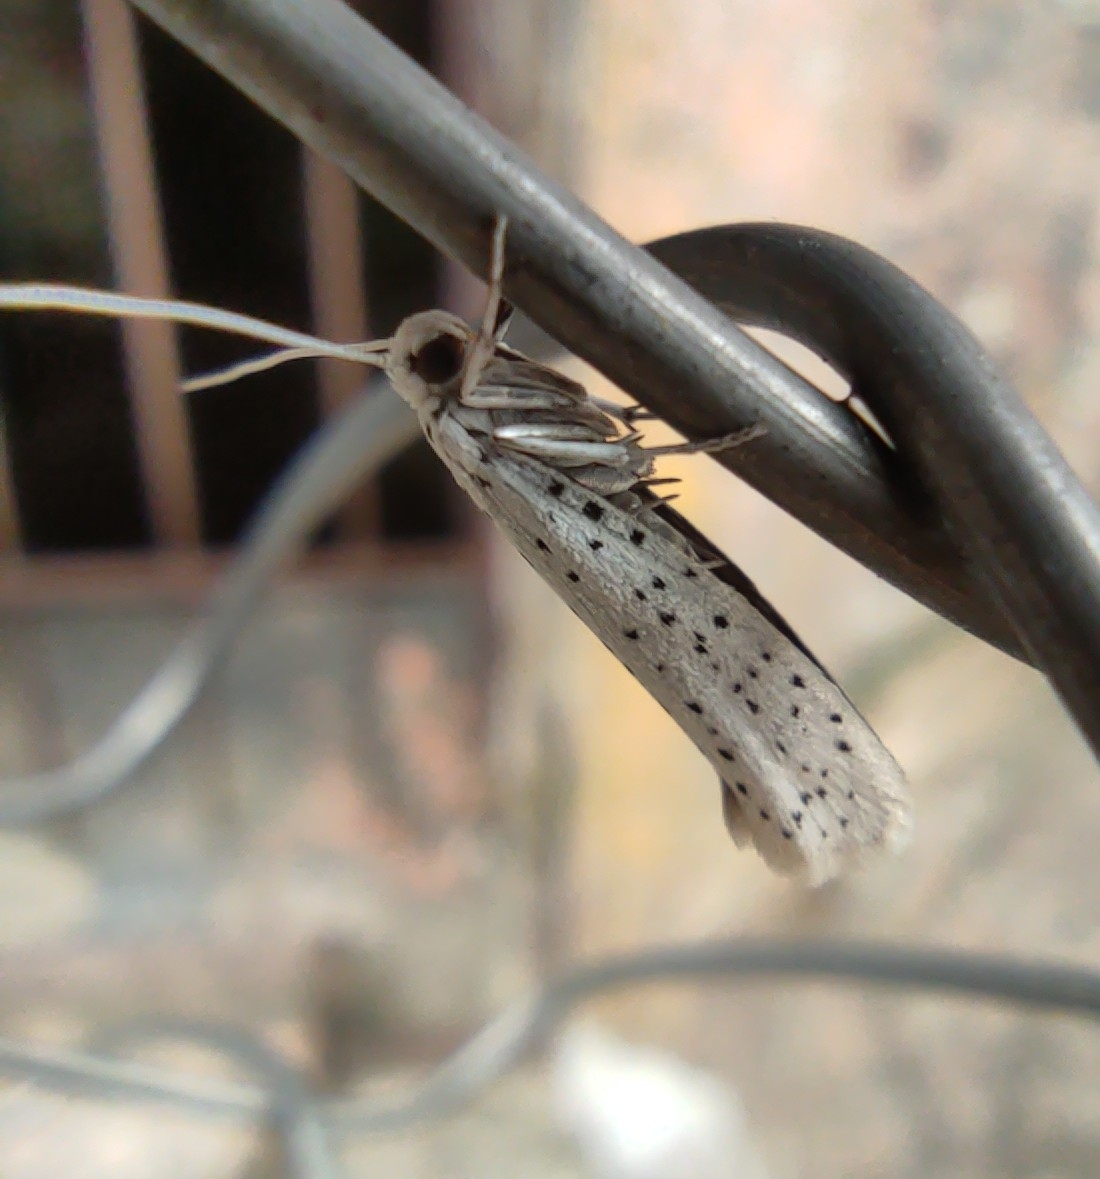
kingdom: Animalia
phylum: Arthropoda
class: Insecta
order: Lepidoptera
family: Yponomeutidae
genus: Yponomeuta
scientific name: Yponomeuta padella
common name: Orchard ermine
